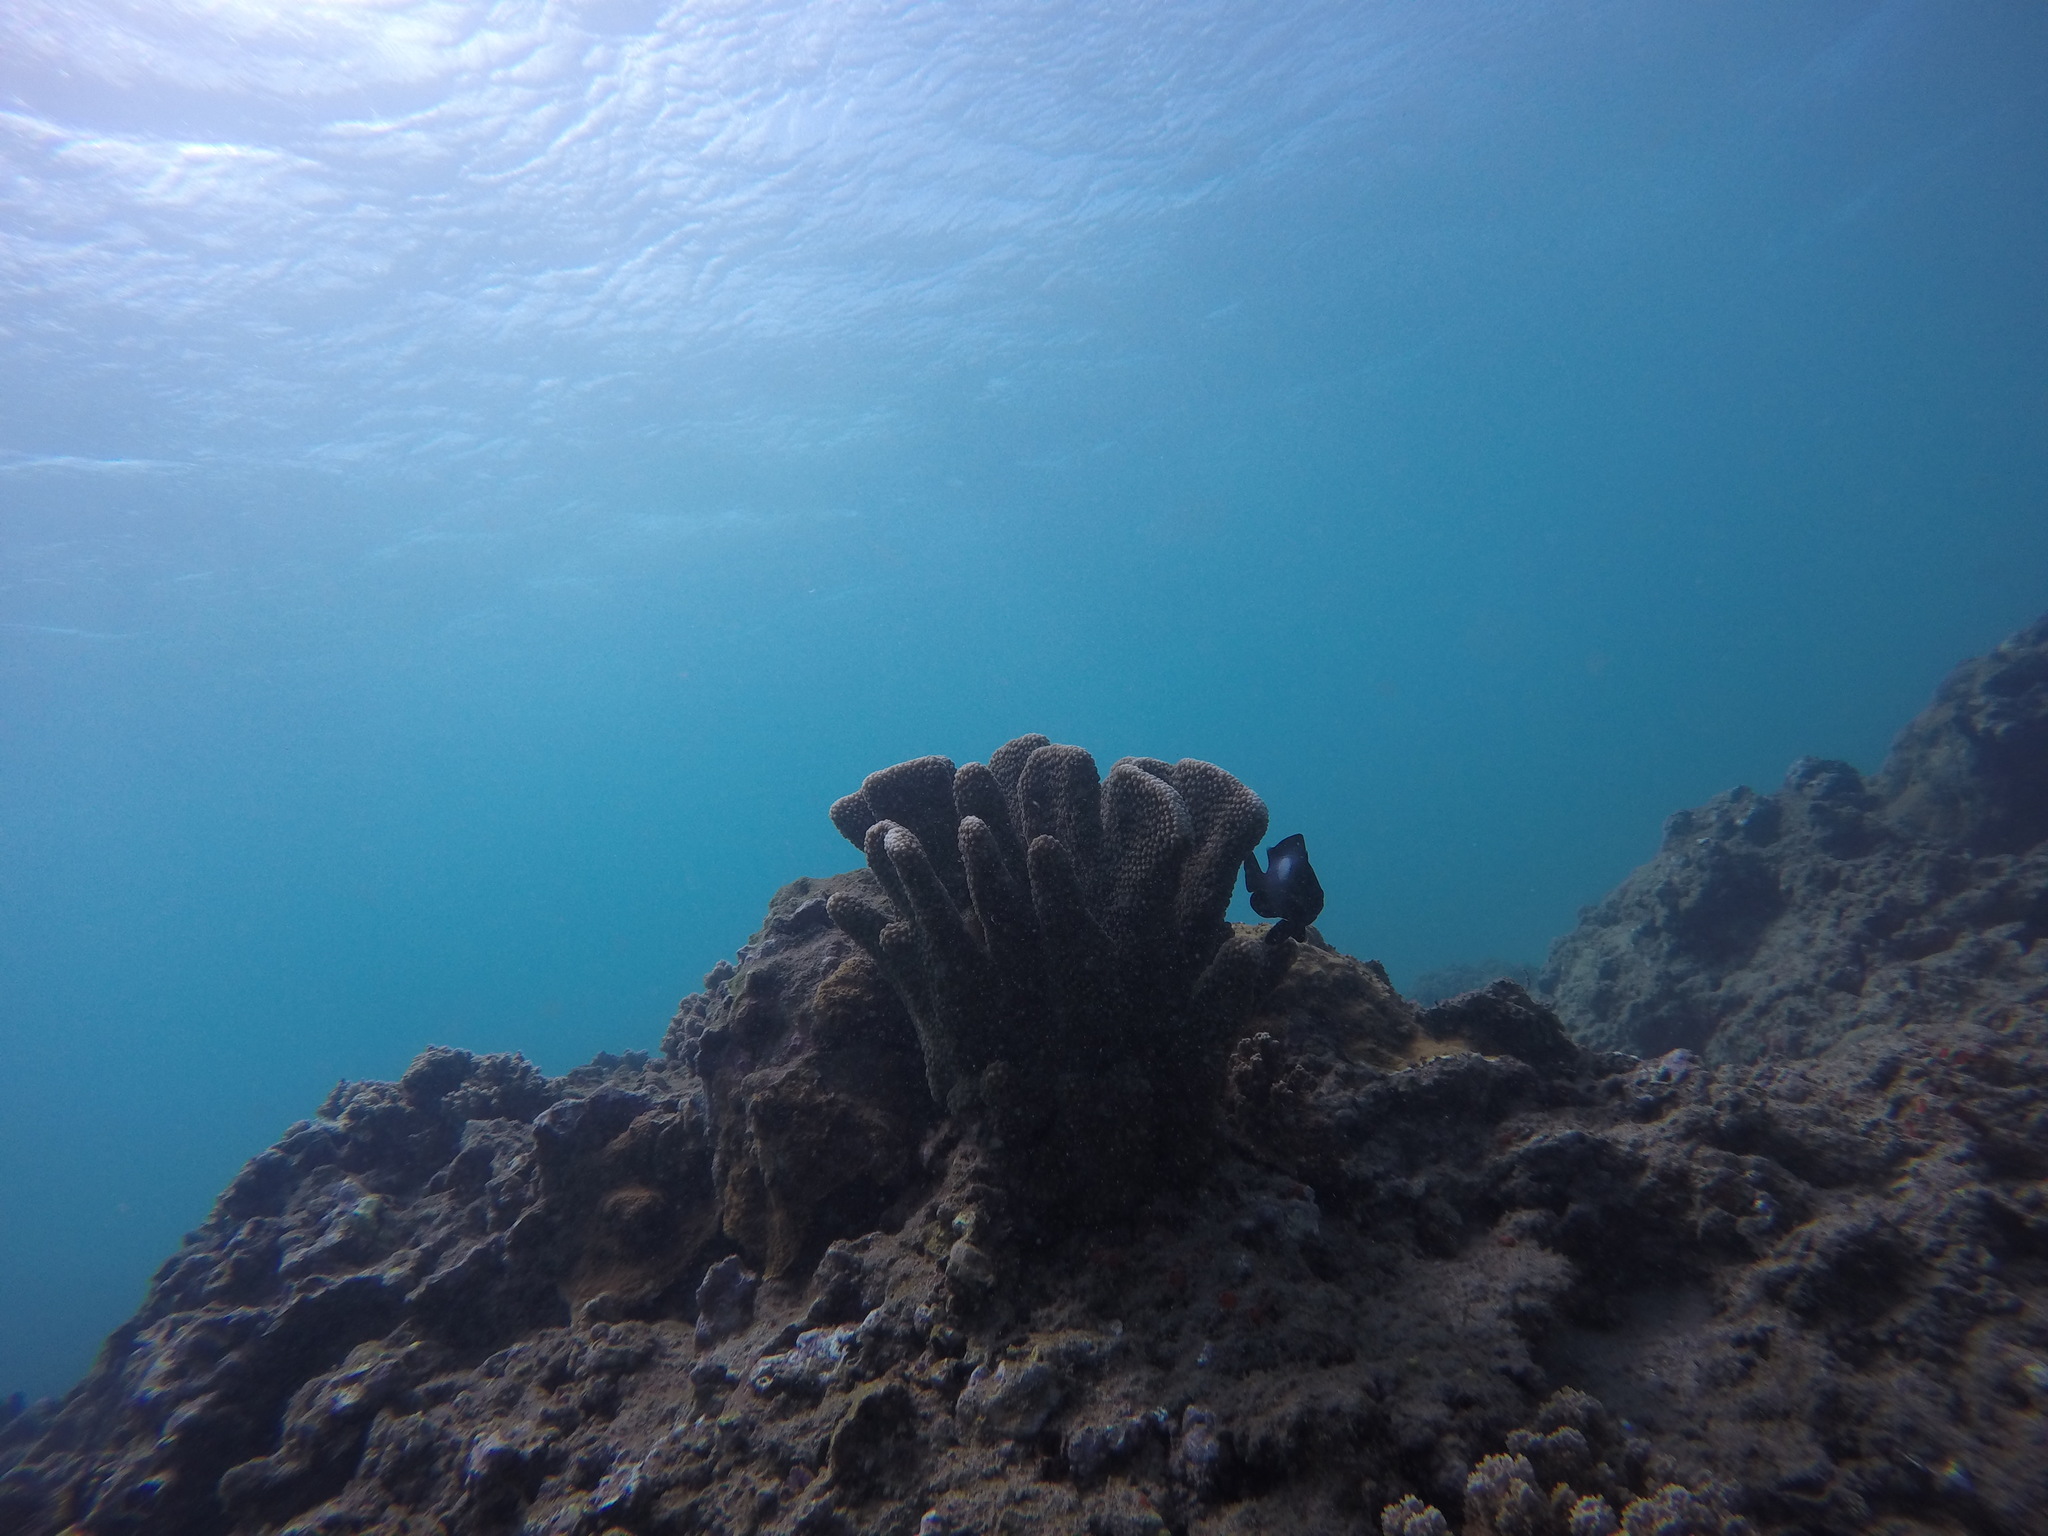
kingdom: Animalia
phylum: Chordata
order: Perciformes
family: Pomacentridae
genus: Dascyllus
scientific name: Dascyllus albisella
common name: Hawaiian dascyllus
